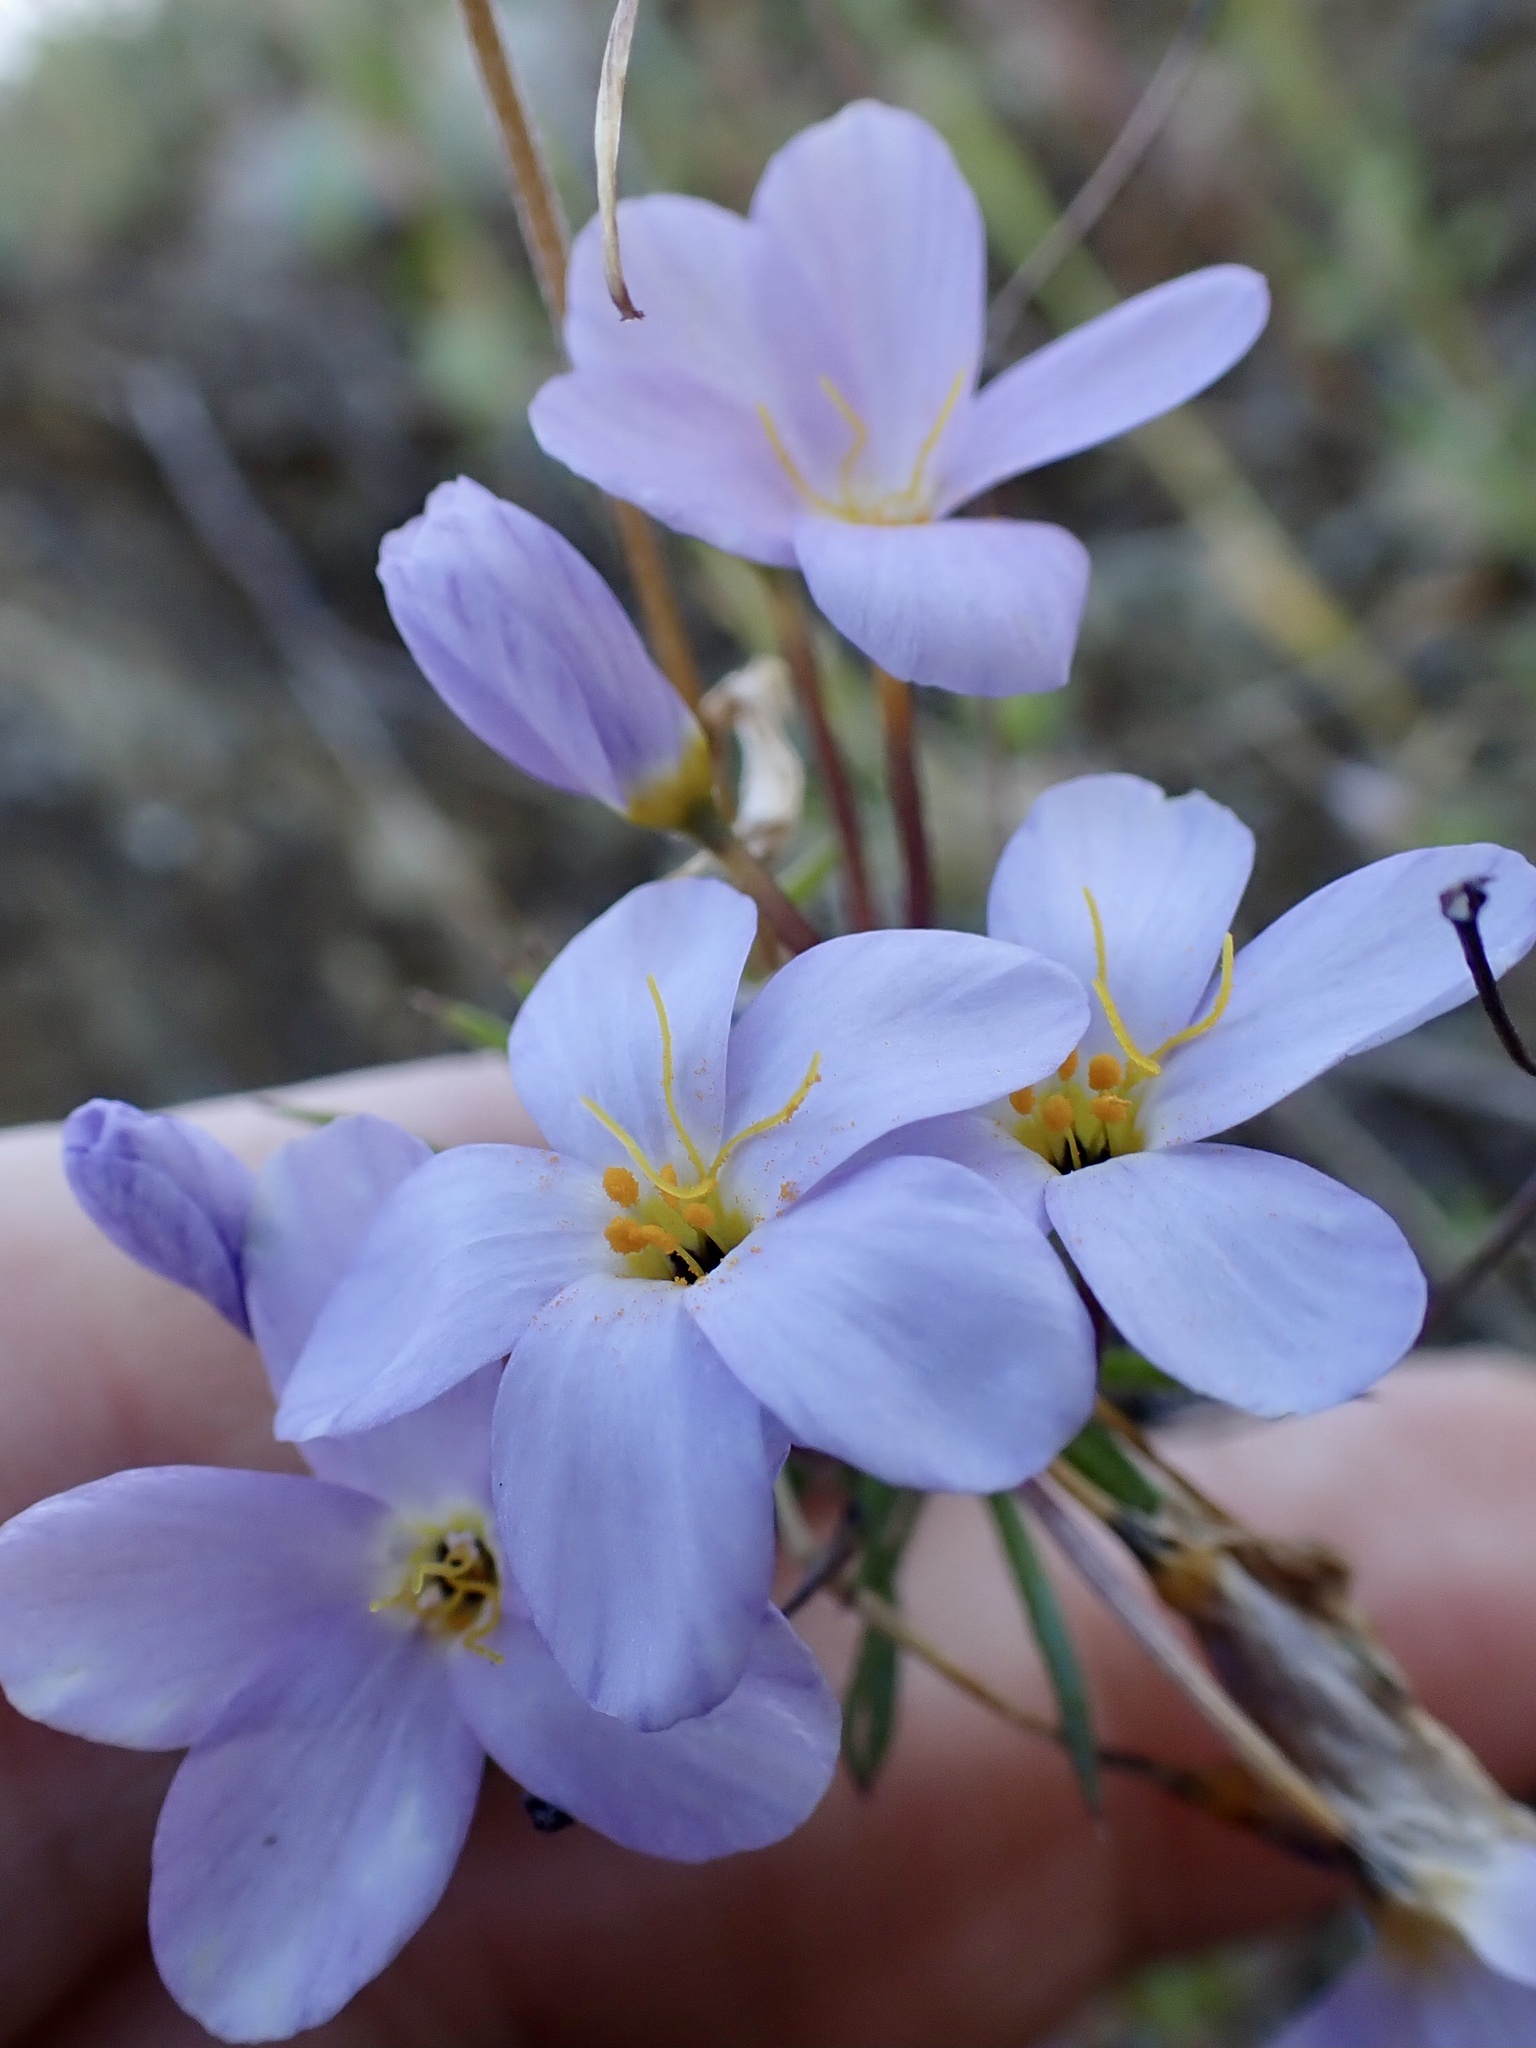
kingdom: Plantae
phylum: Tracheophyta
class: Magnoliopsida
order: Ericales
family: Polemoniaceae
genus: Leptosiphon
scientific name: Leptosiphon androsaceus
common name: False babystars
